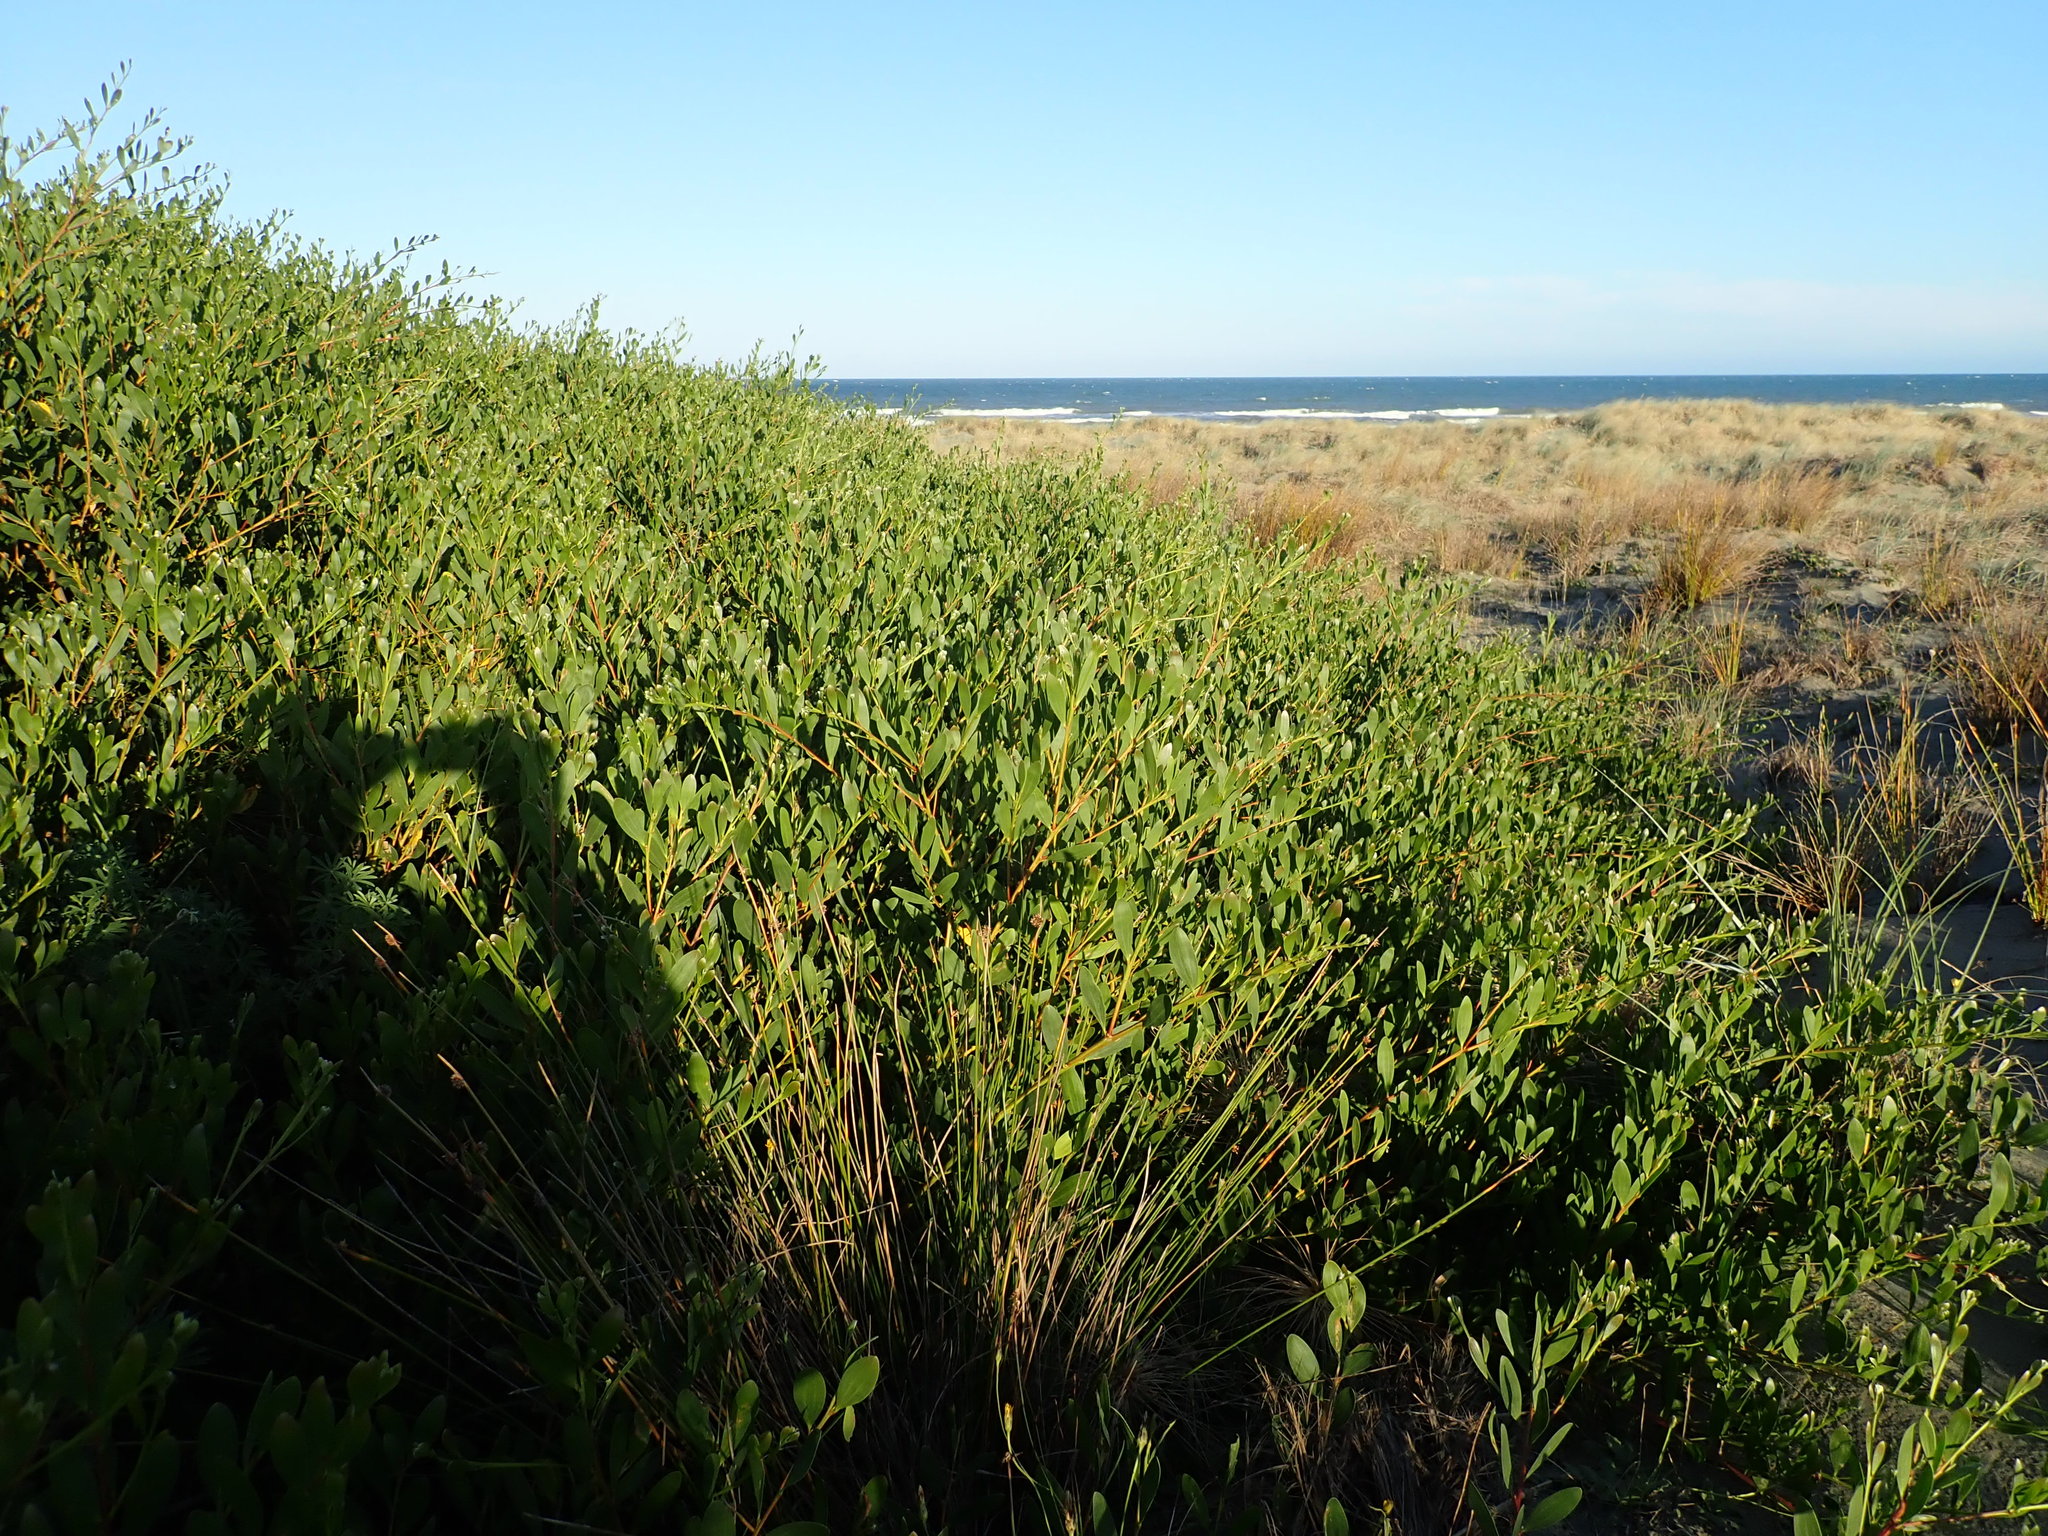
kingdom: Plantae
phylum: Tracheophyta
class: Magnoliopsida
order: Fabales
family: Fabaceae
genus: Acacia
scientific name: Acacia longifolia
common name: Sydney golden wattle
